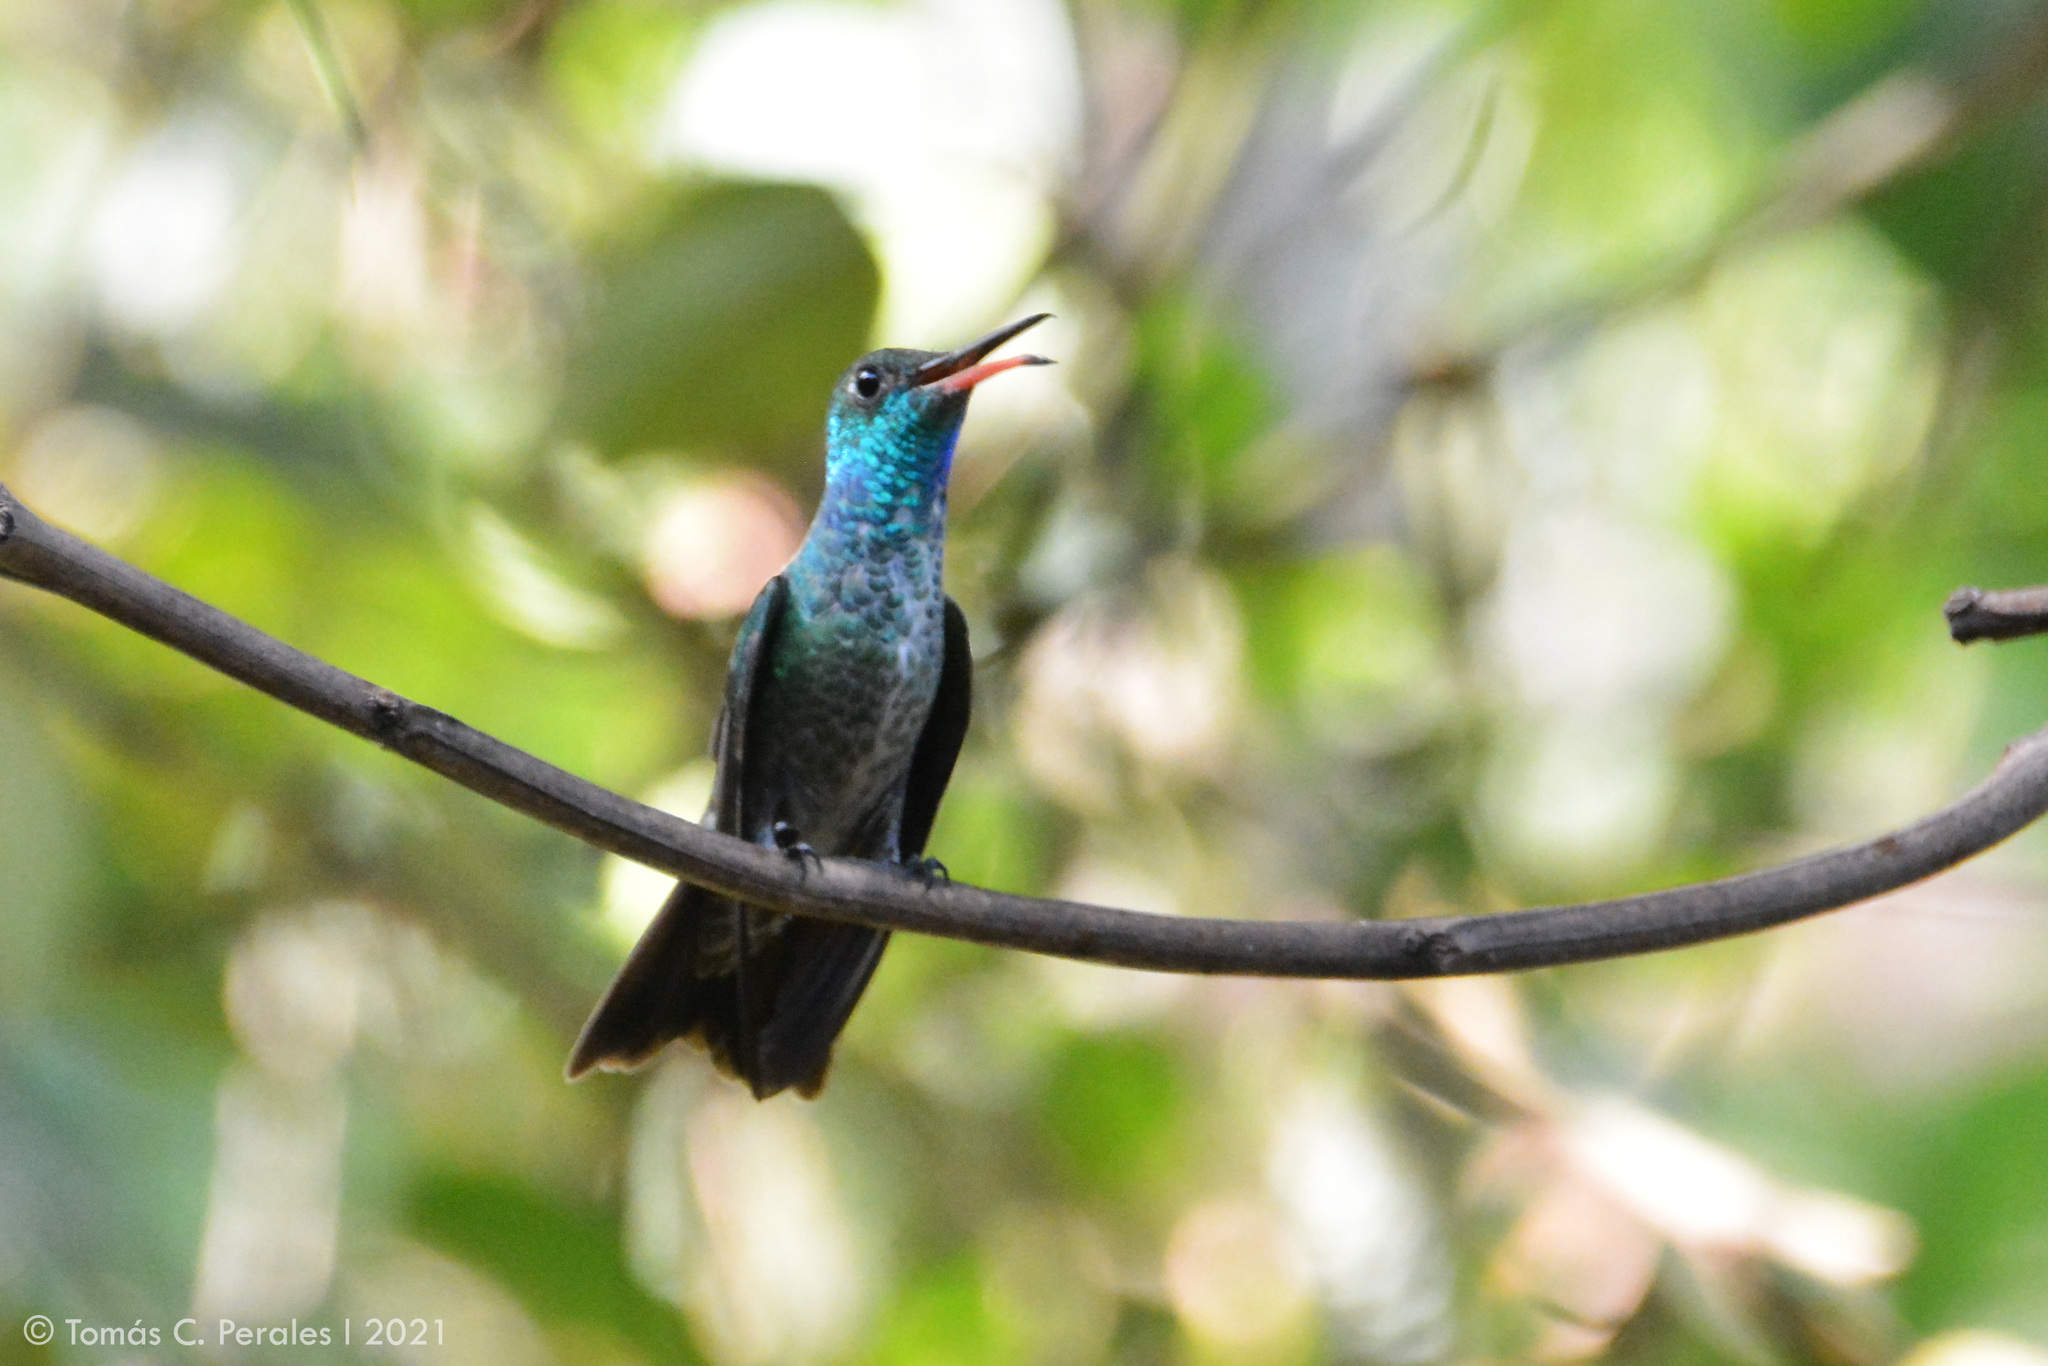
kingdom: Animalia
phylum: Chordata
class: Aves
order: Apodiformes
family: Trochilidae
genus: Chrysuronia
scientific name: Chrysuronia versicolor
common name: Versicolored emerald
